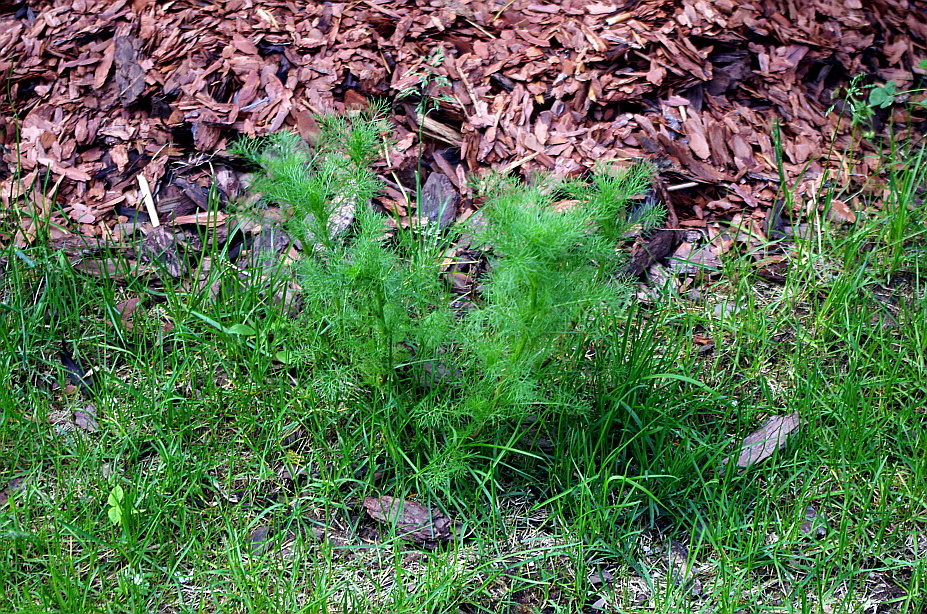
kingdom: Plantae
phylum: Tracheophyta
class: Magnoliopsida
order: Asterales
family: Asteraceae
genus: Tripleurospermum
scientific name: Tripleurospermum inodorum
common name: Scentless mayweed
